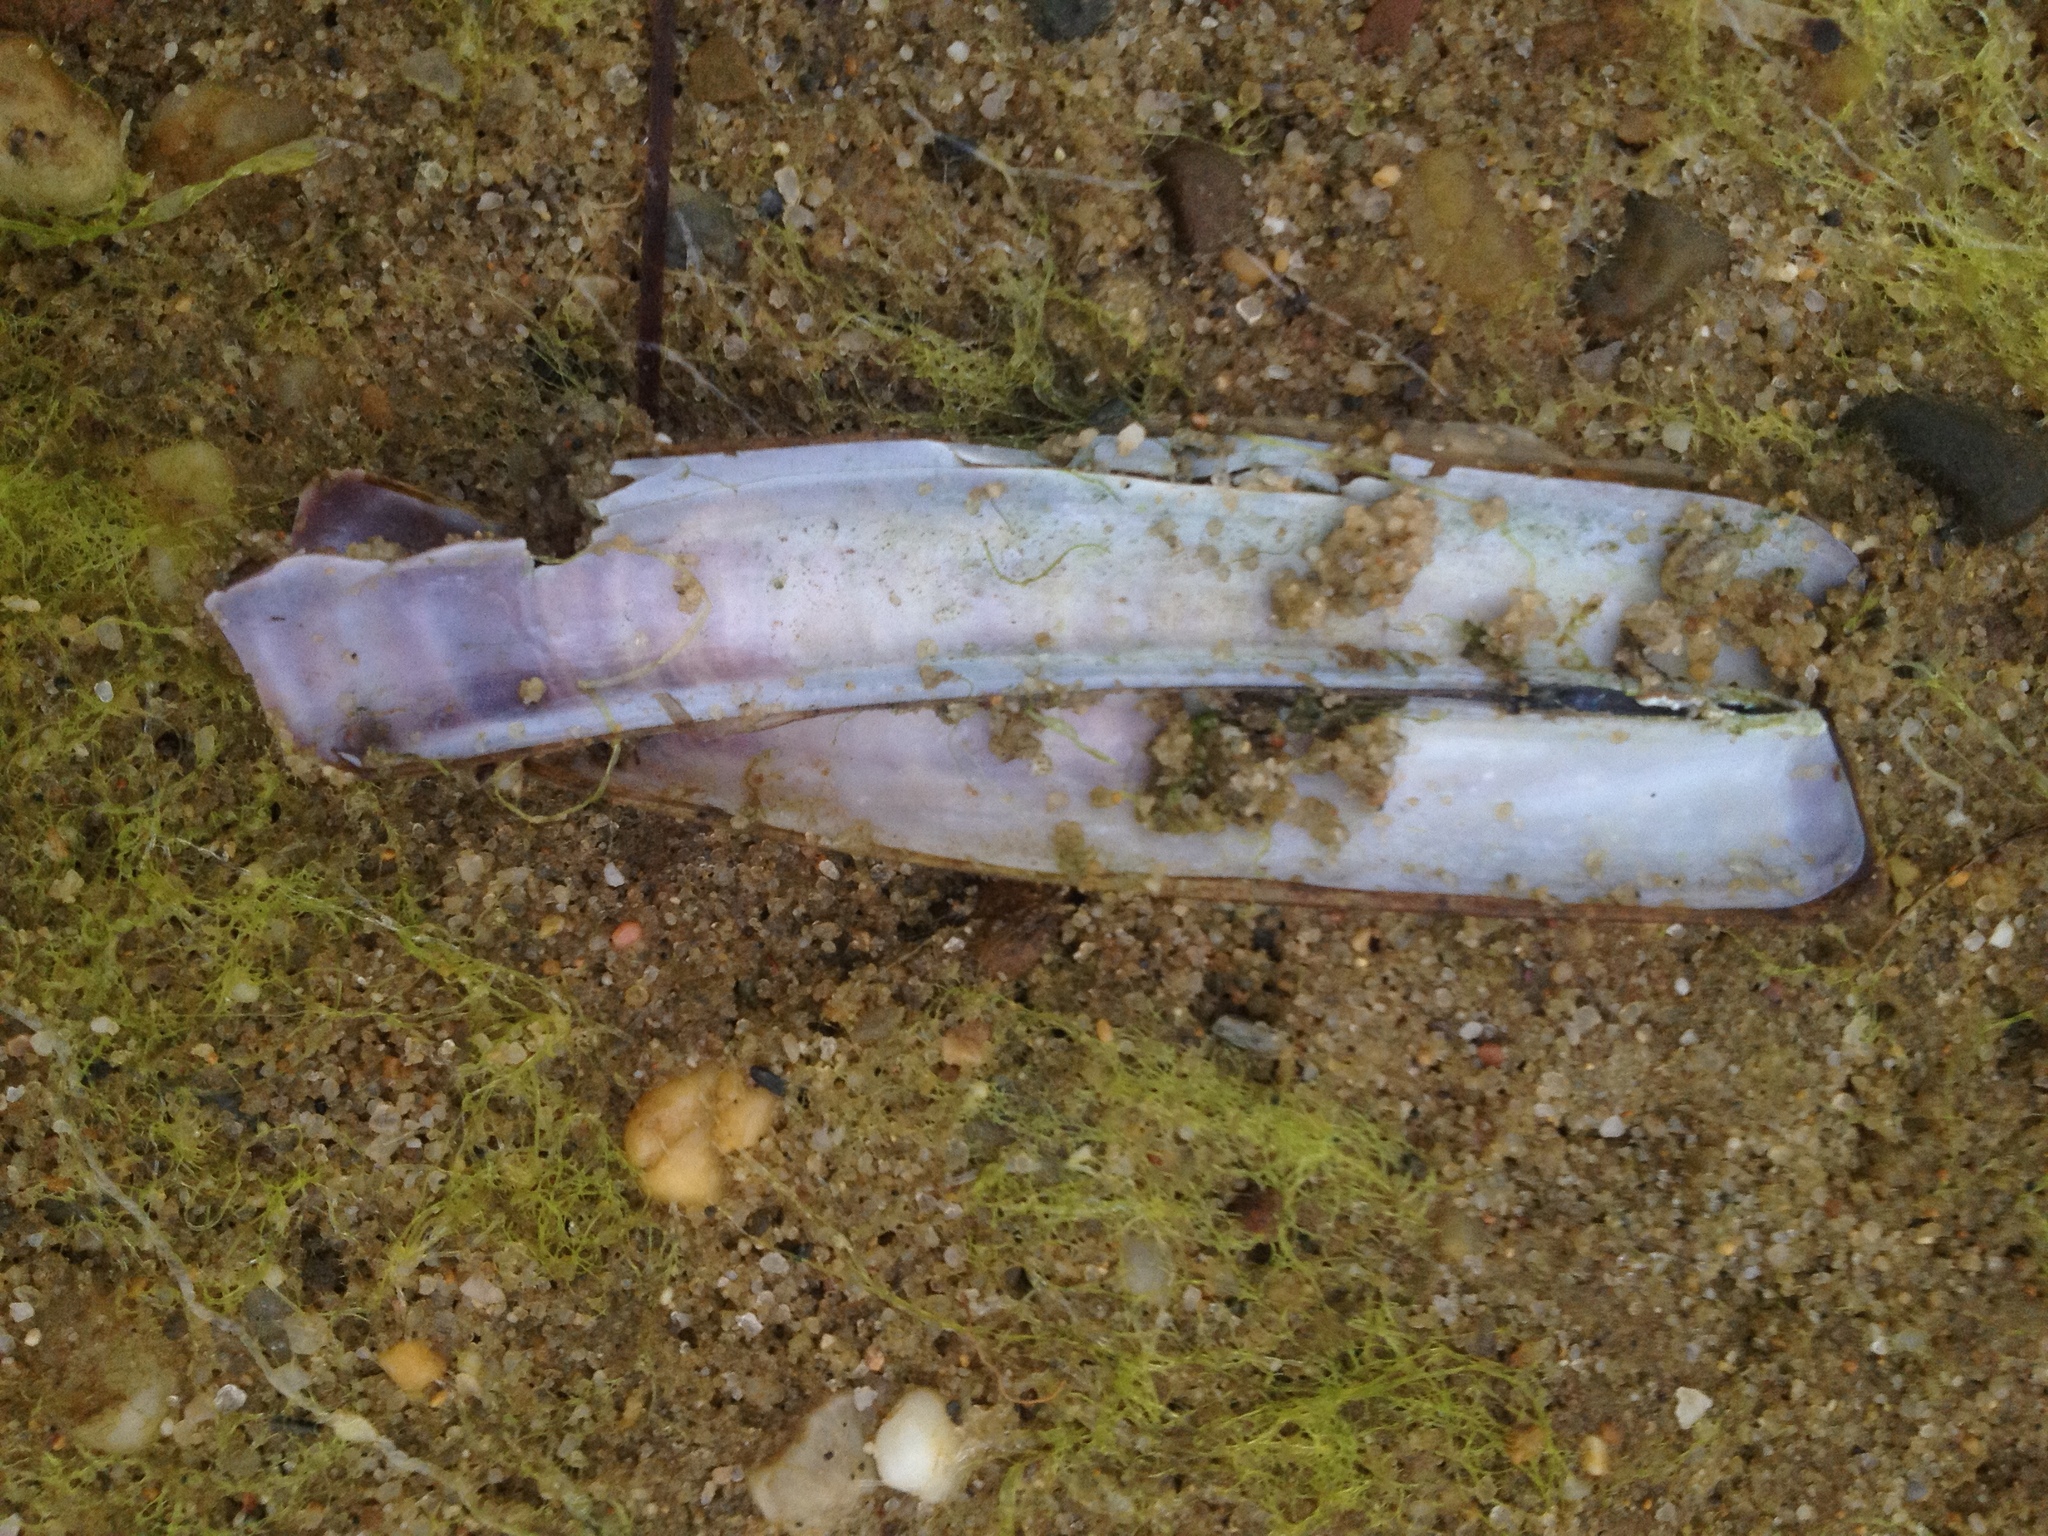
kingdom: Animalia
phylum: Mollusca
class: Bivalvia
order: Adapedonta
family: Pharidae
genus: Ensis
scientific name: Ensis leei
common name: American jack knife clam
